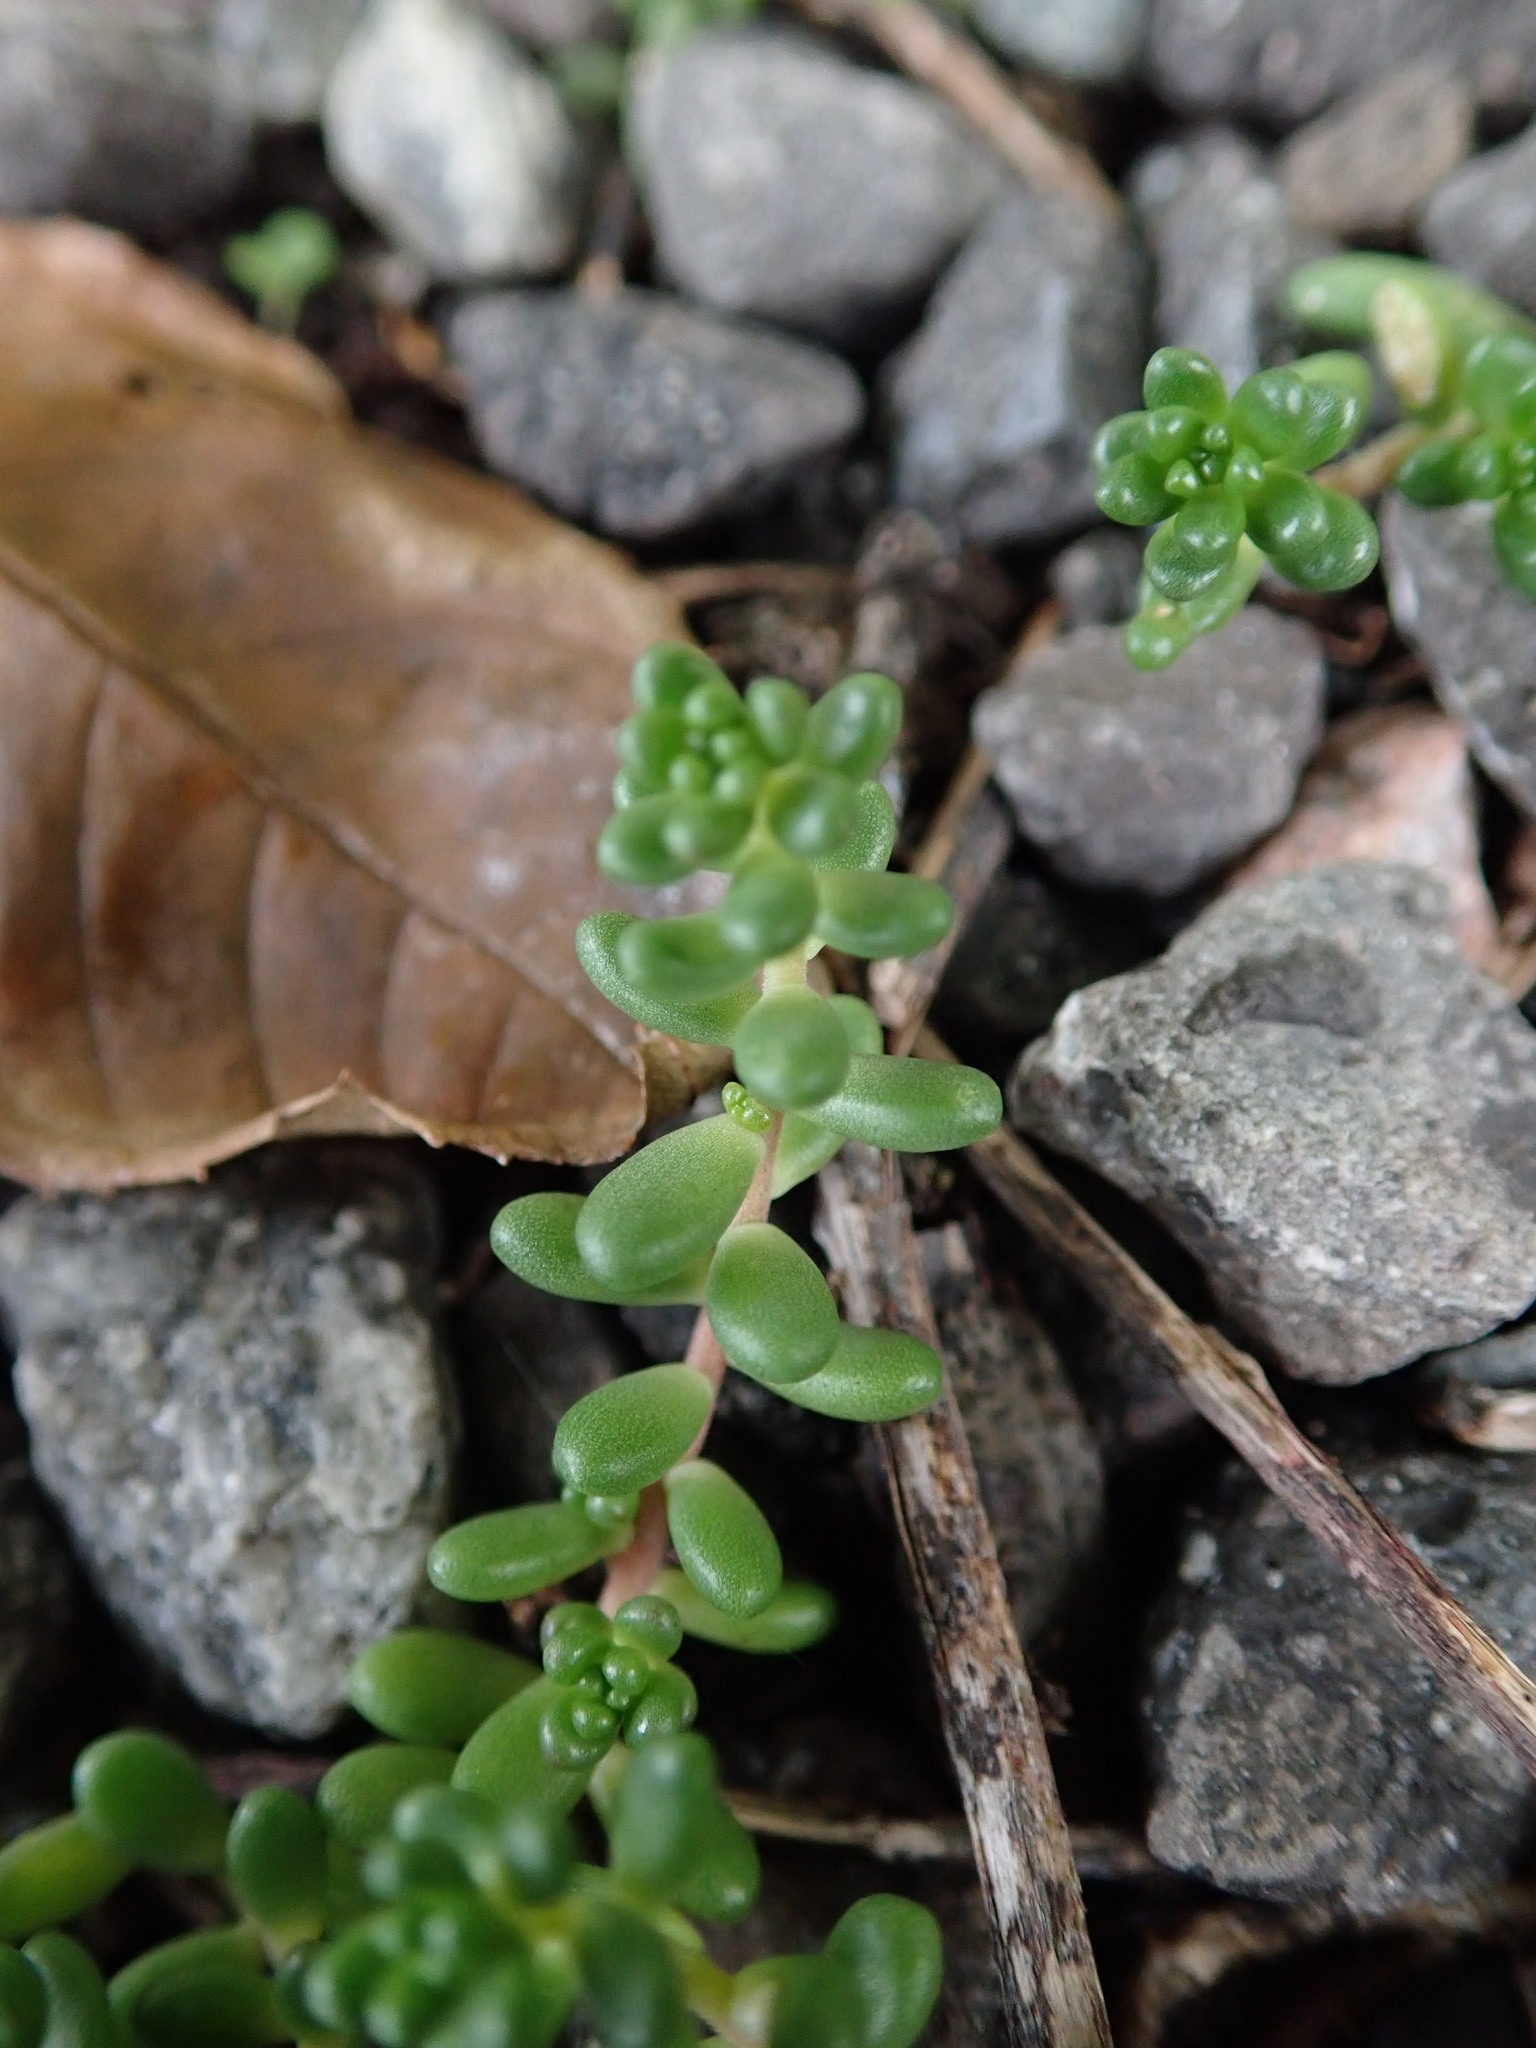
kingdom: Plantae
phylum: Tracheophyta
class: Magnoliopsida
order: Saxifragales
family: Crassulaceae
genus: Sedum
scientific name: Sedum album
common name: White stonecrop
